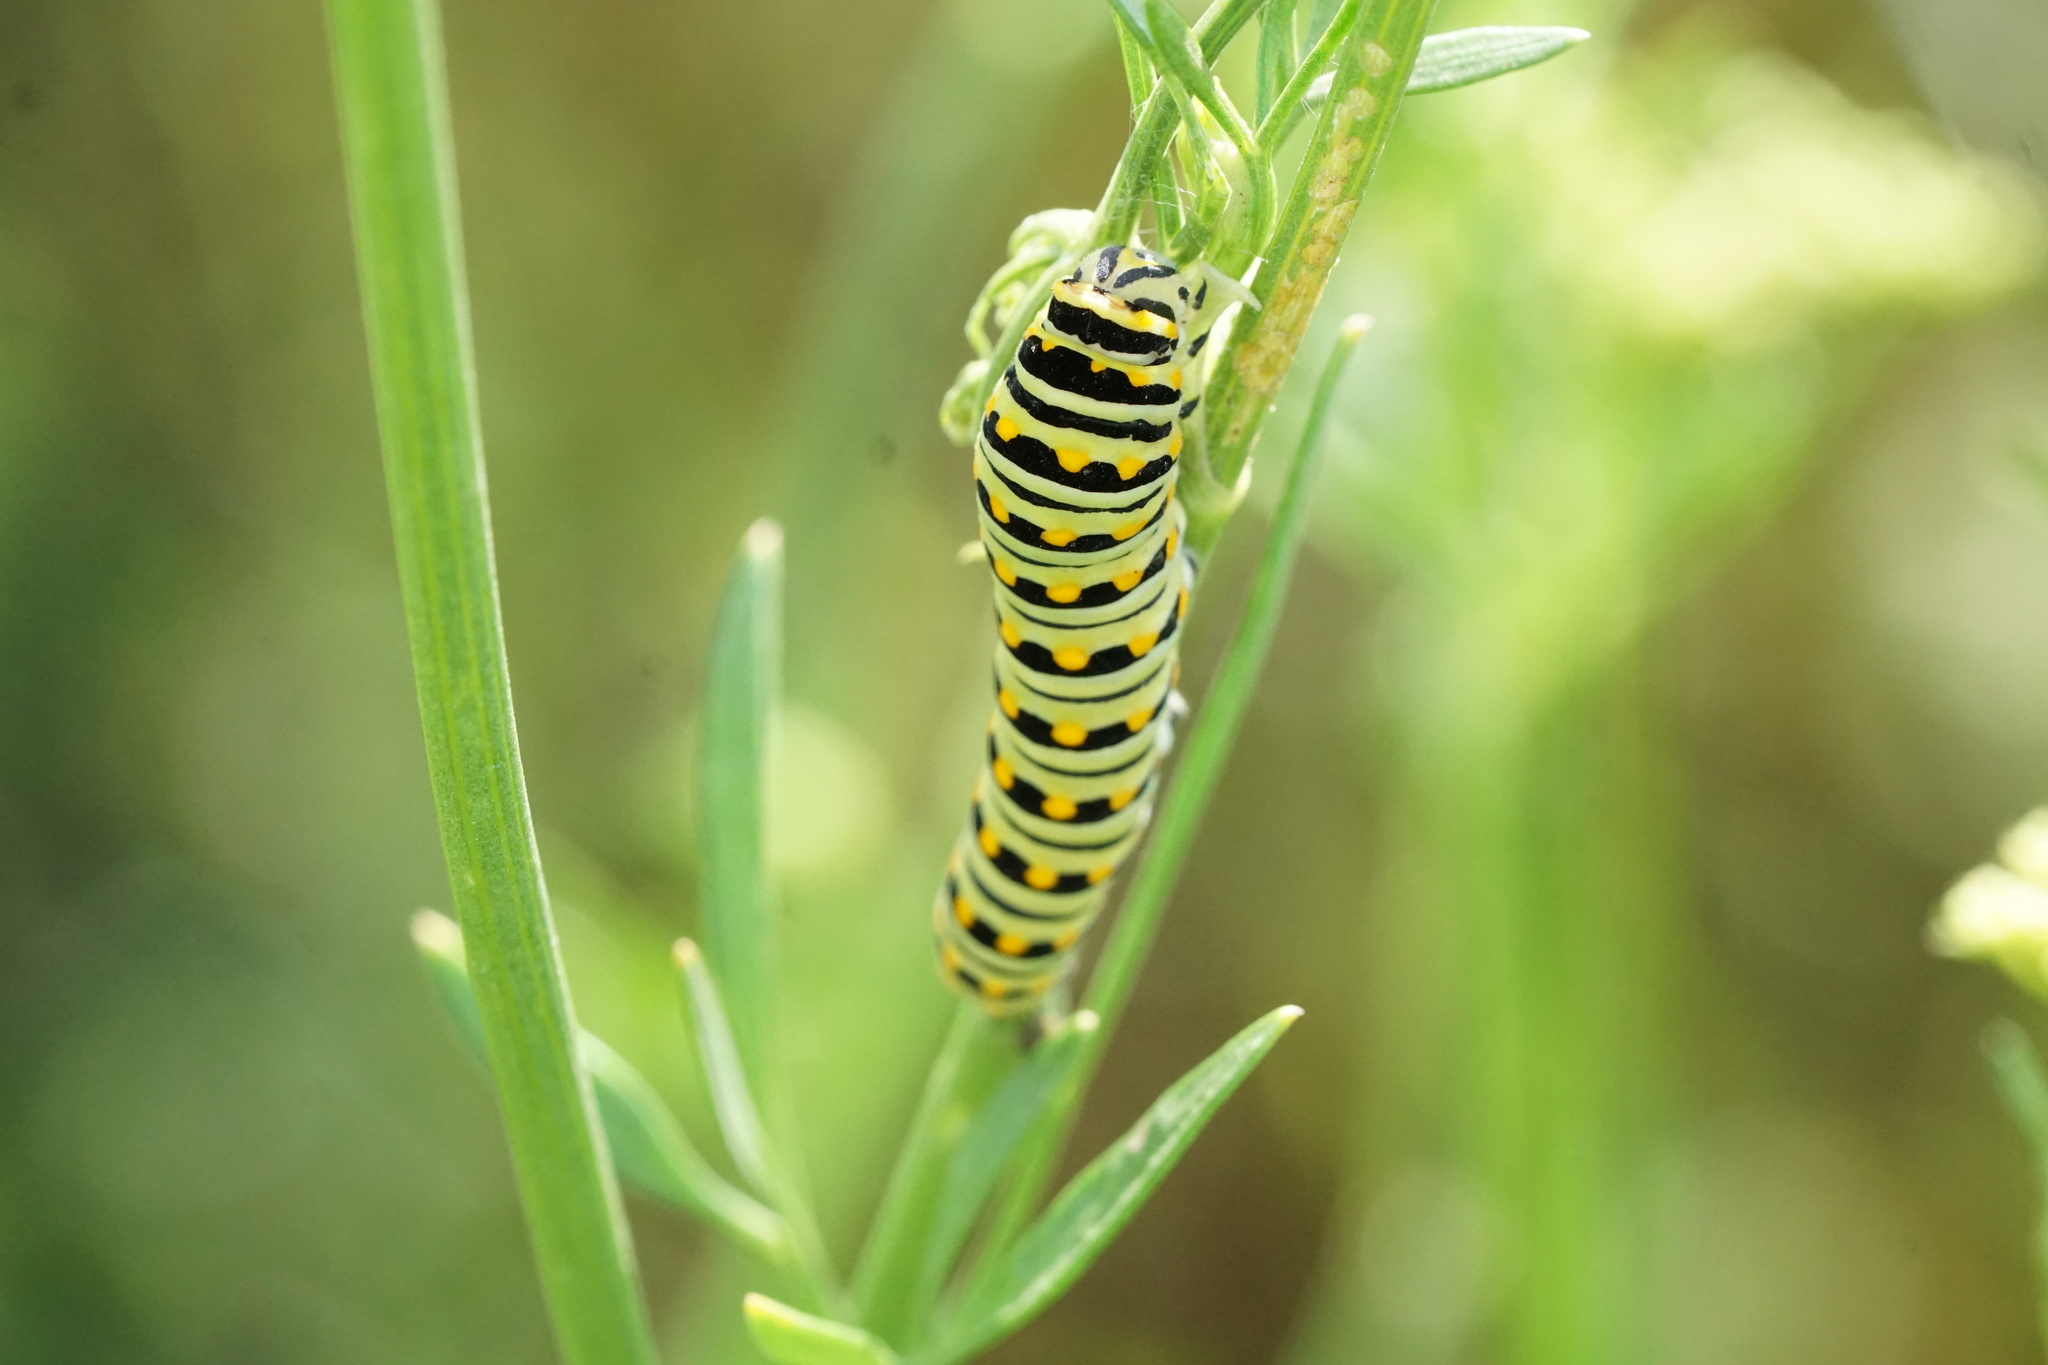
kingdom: Animalia
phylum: Arthropoda
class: Insecta
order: Lepidoptera
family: Papilionidae
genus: Papilio
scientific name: Papilio polyxenes
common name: Black swallowtail
